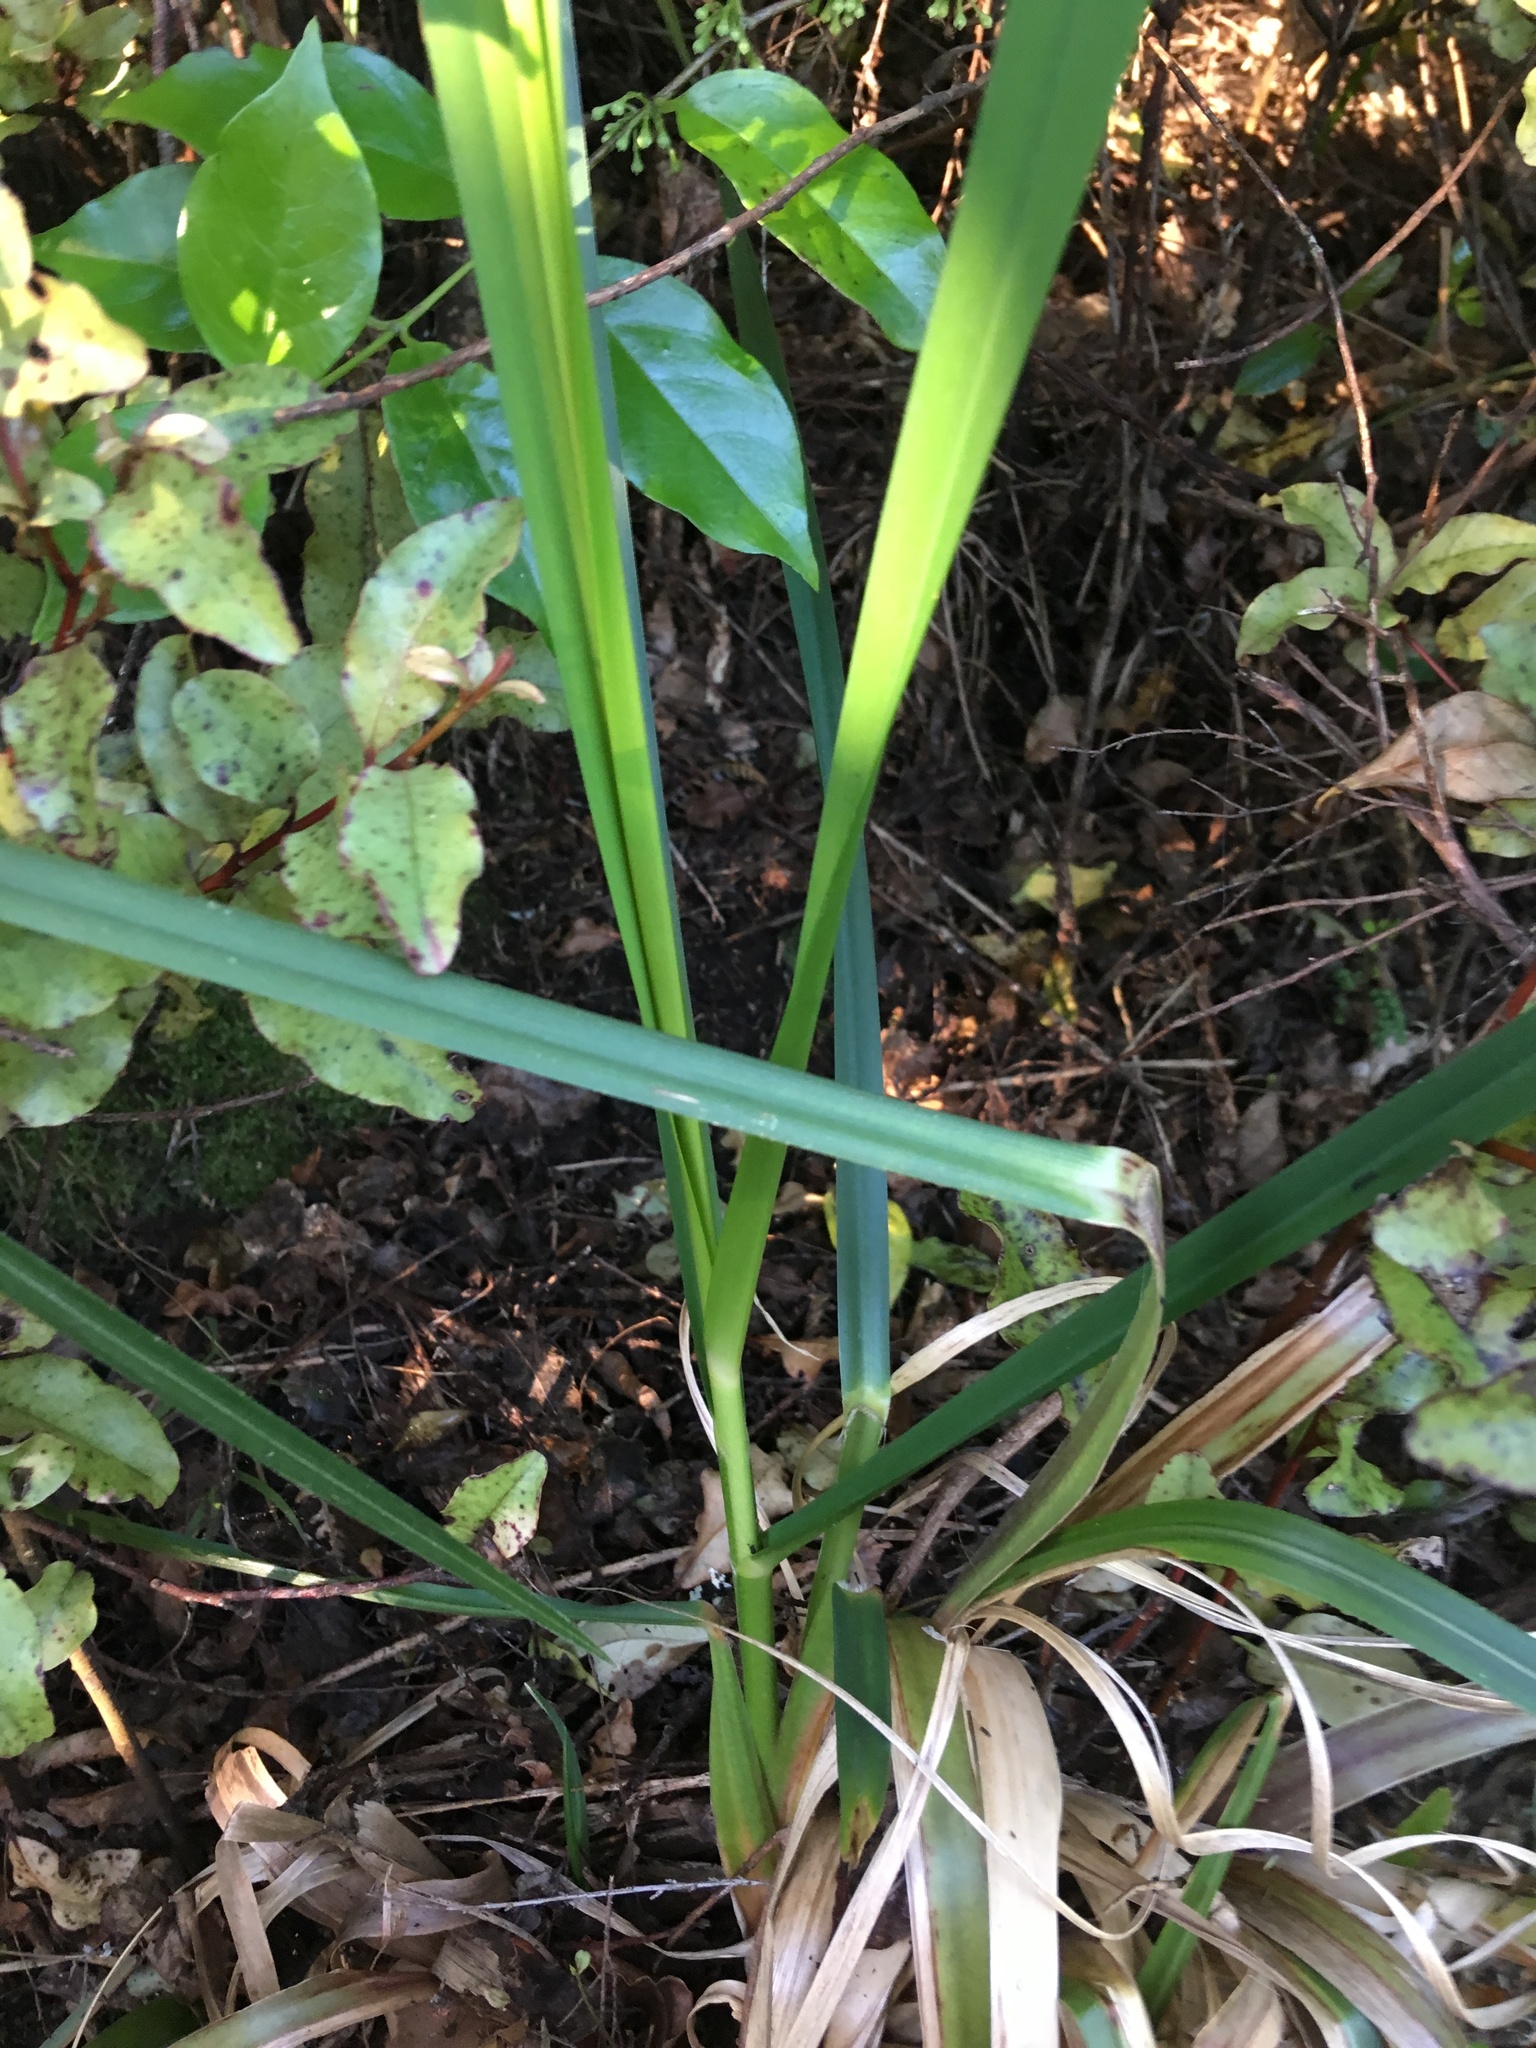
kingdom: Plantae
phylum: Tracheophyta
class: Liliopsida
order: Poales
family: Poaceae
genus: Cortaderia
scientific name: Cortaderia selloana
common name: Uruguayan pampas grass
